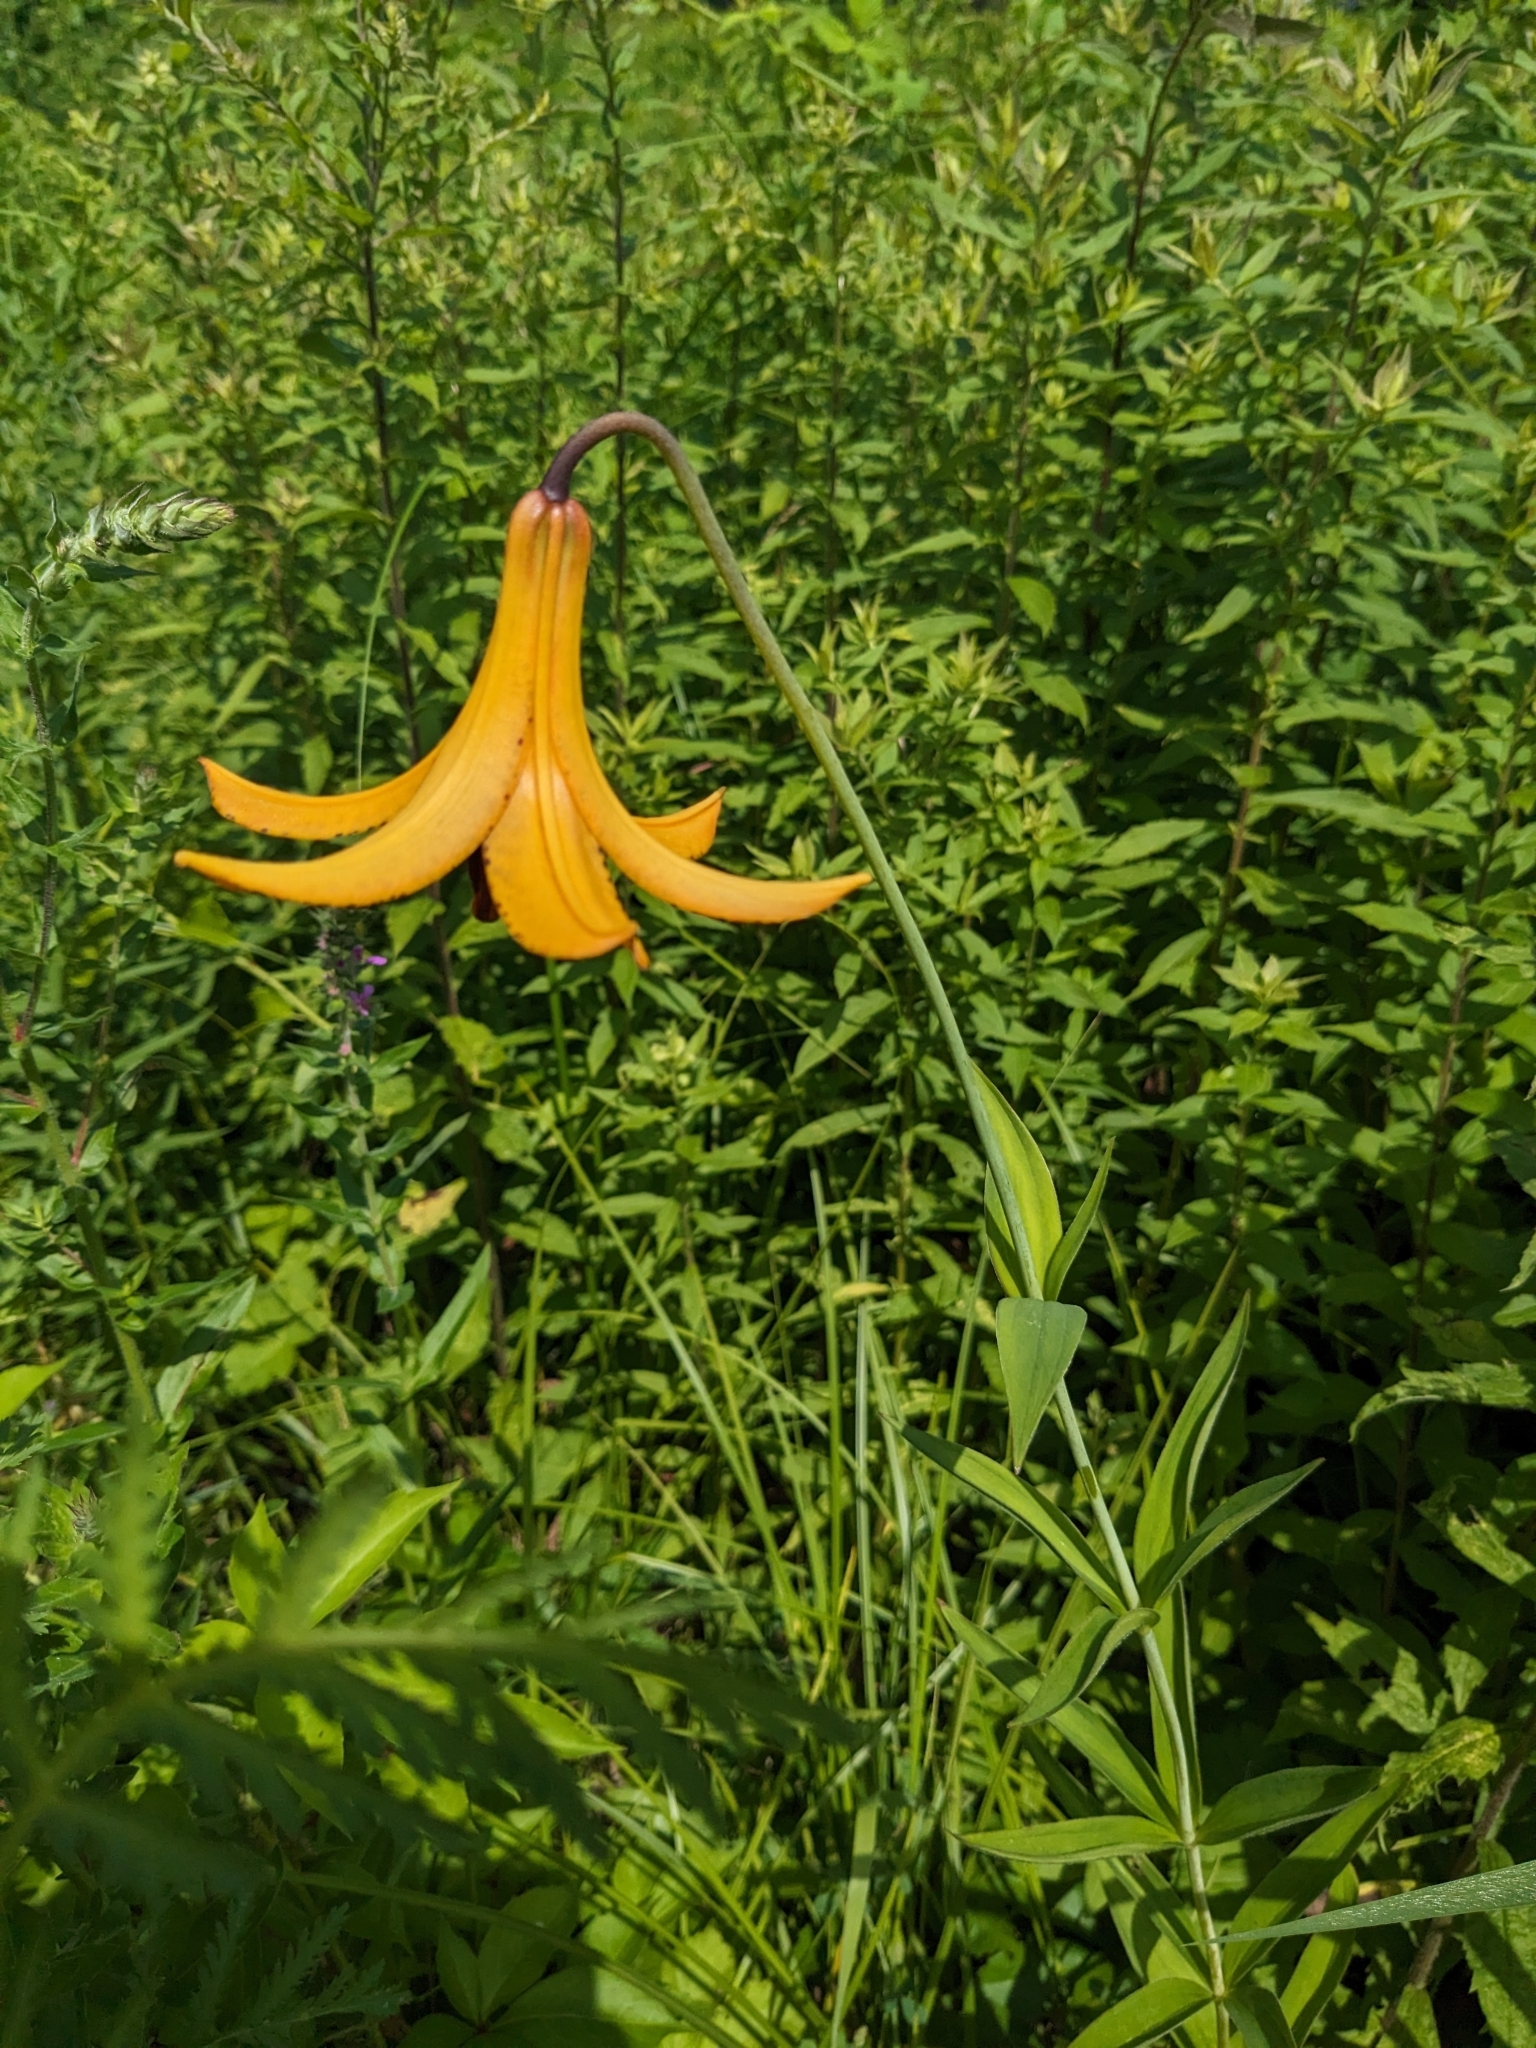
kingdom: Plantae
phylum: Tracheophyta
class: Liliopsida
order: Liliales
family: Liliaceae
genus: Lilium
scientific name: Lilium canadense
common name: Canada lily
